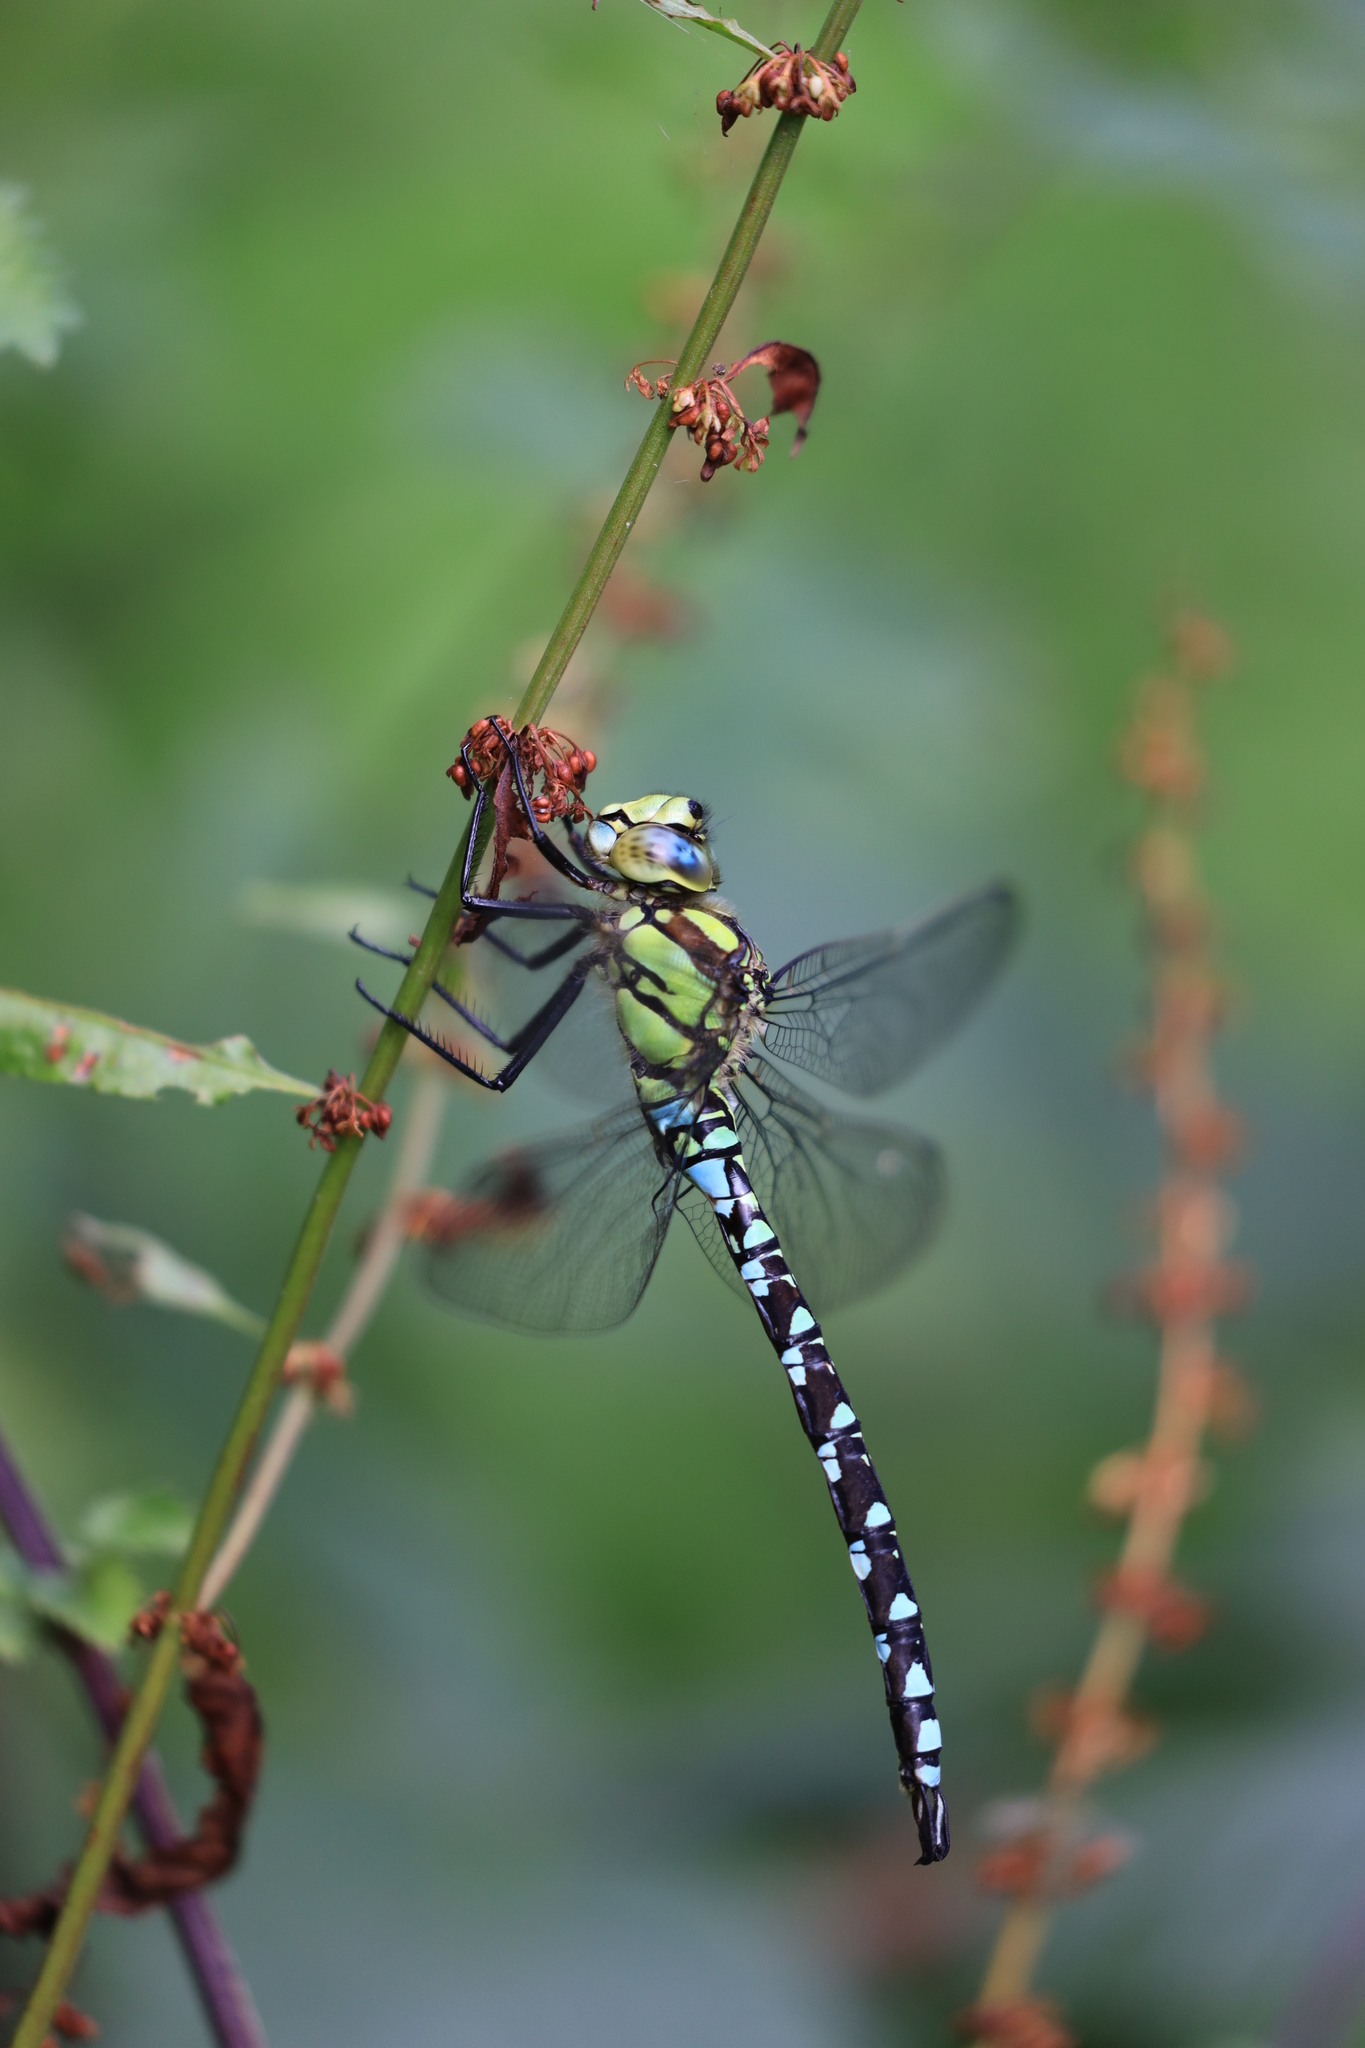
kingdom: Animalia
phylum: Arthropoda
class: Insecta
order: Odonata
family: Aeshnidae
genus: Aeshna
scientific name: Aeshna cyanea
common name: Southern hawker
